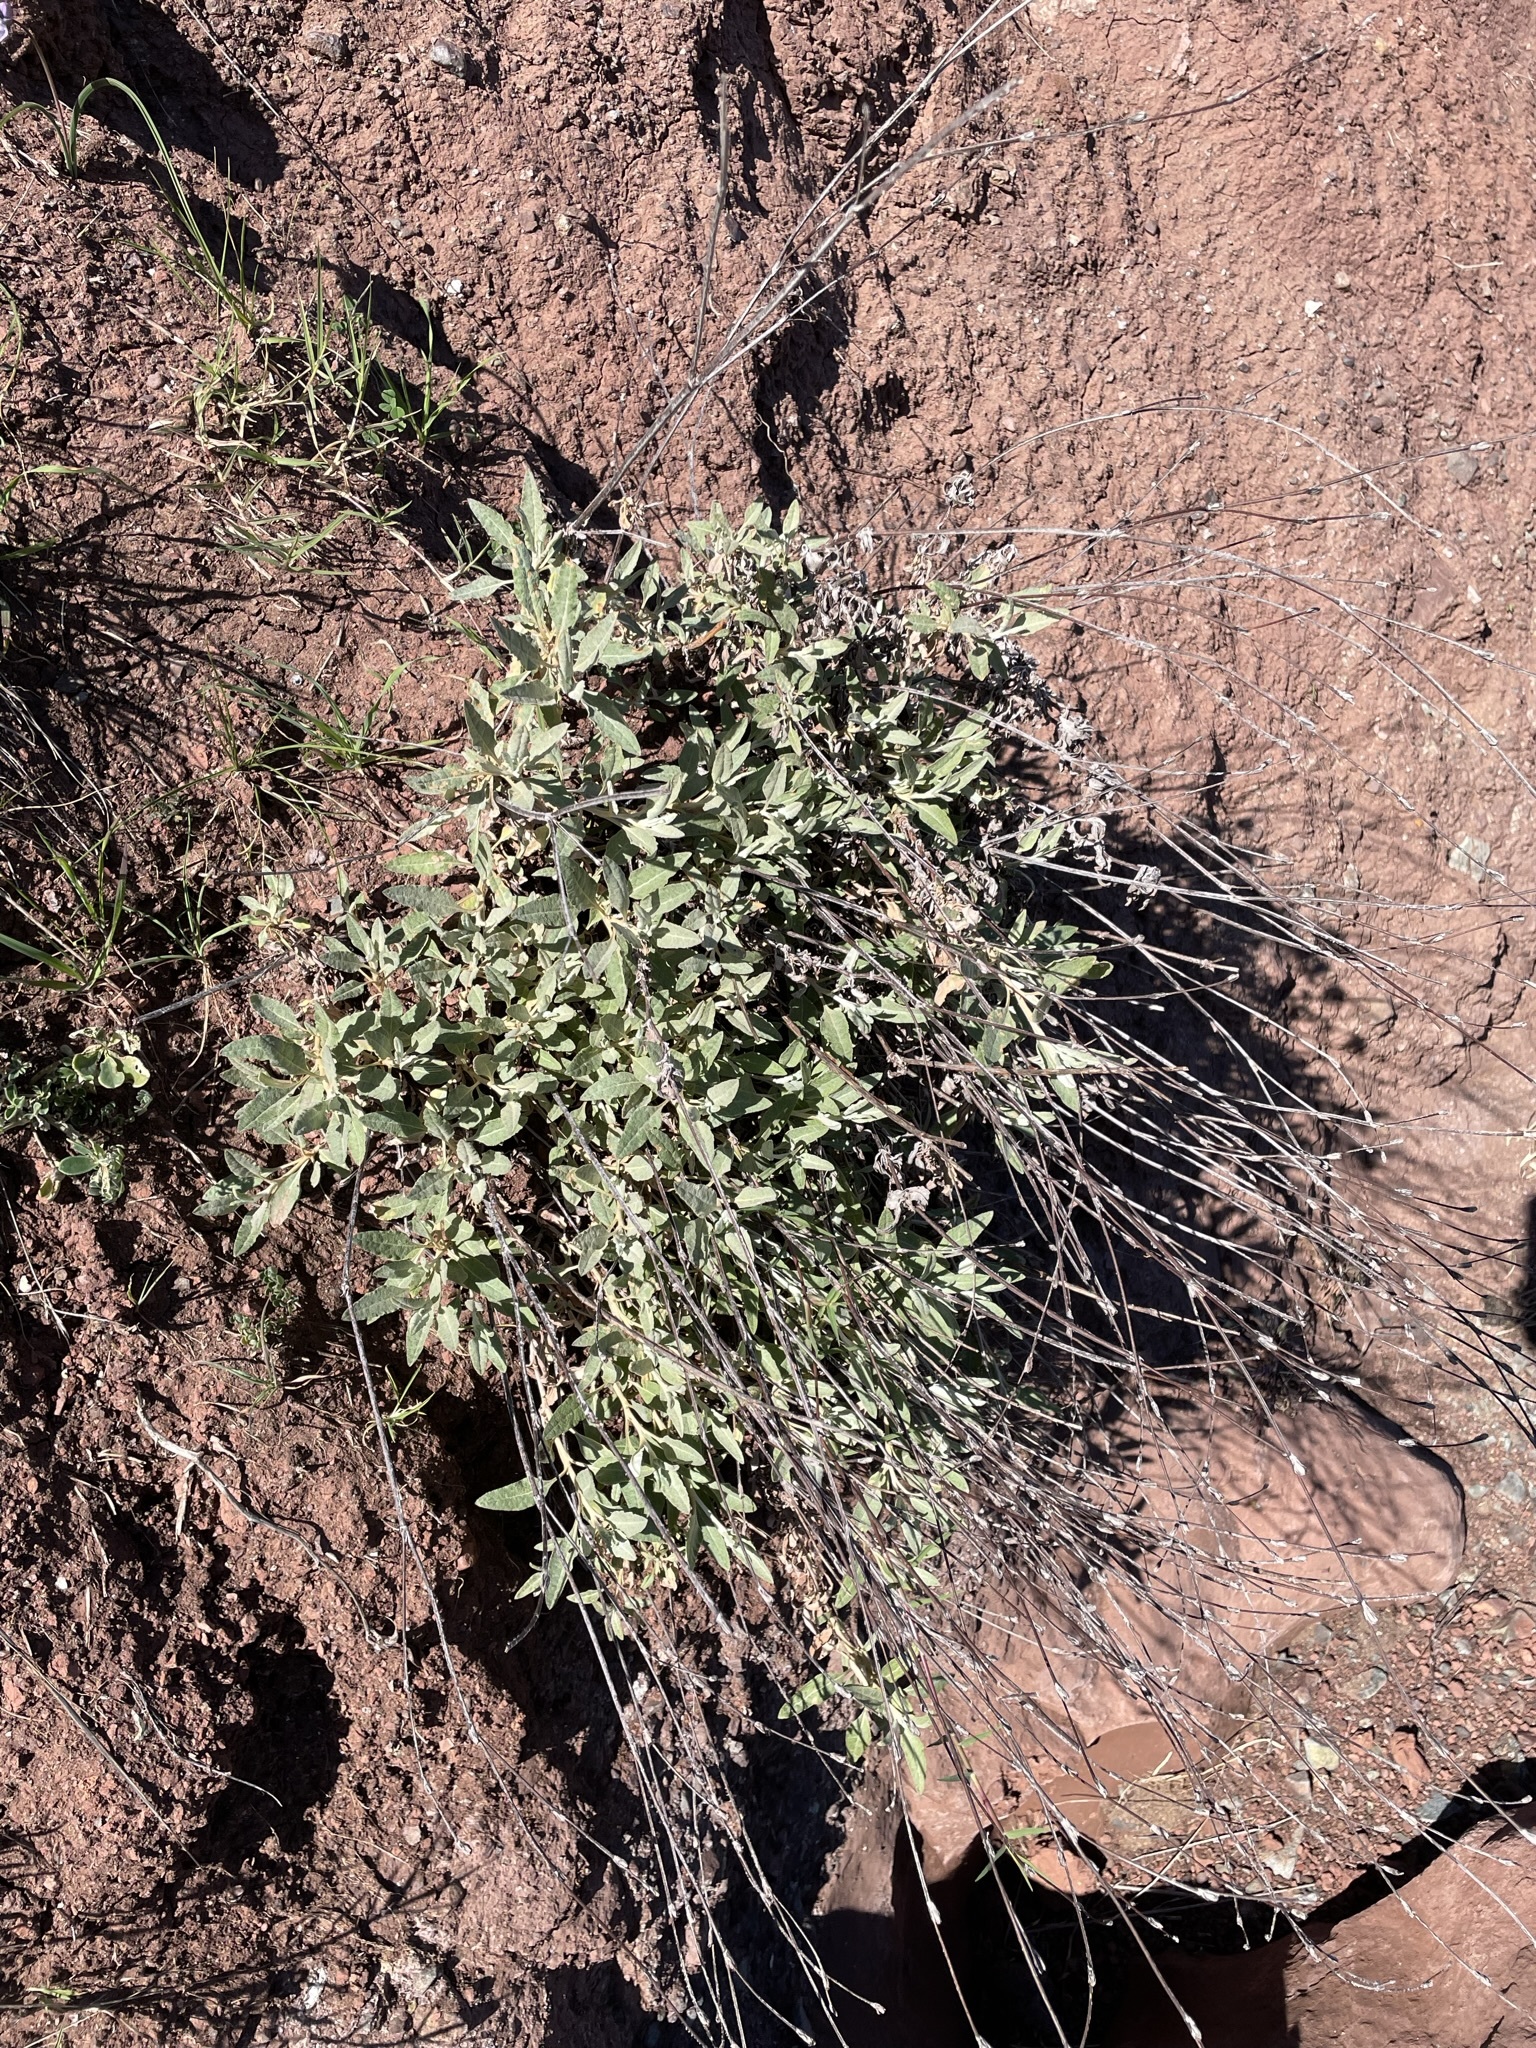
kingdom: Plantae
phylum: Tracheophyta
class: Magnoliopsida
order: Caryophyllales
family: Polygonaceae
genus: Eriogonum
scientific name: Eriogonum elongatum
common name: Long-stem wild buckwheat
